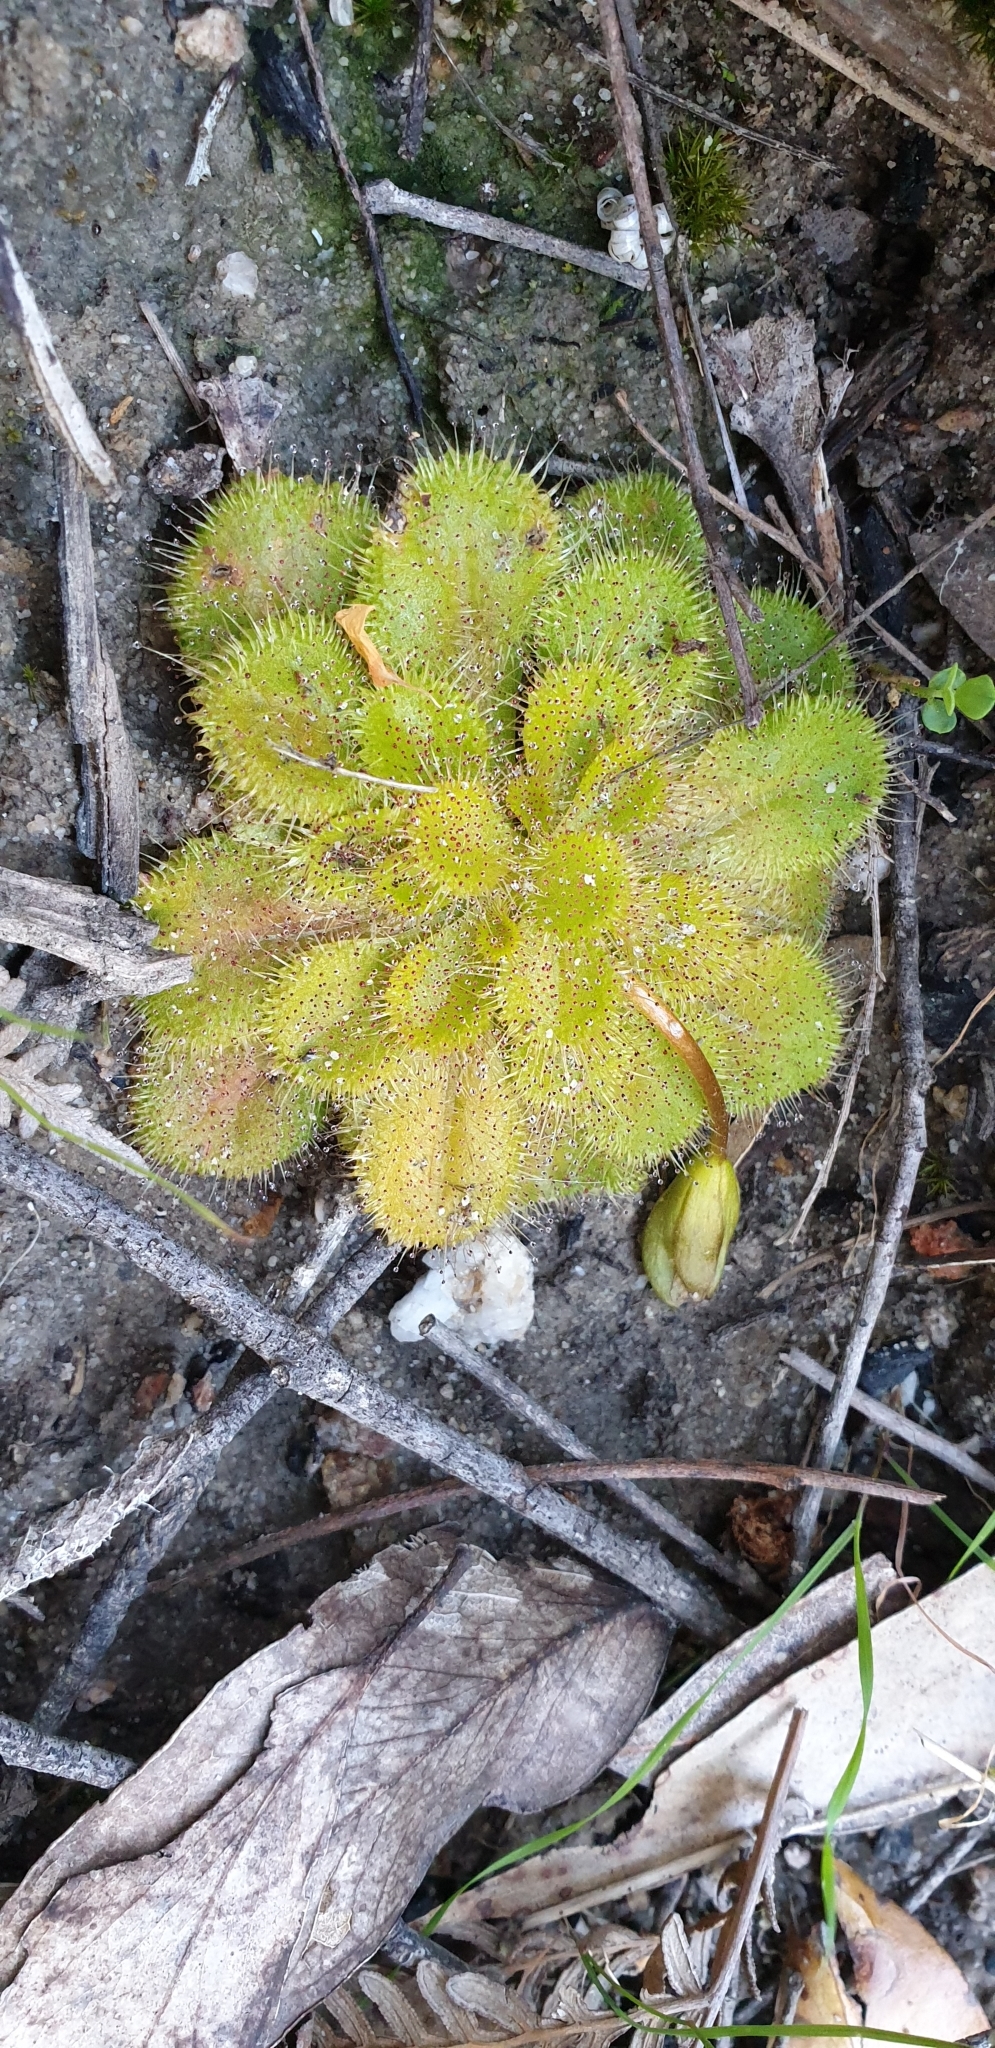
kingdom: Plantae
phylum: Tracheophyta
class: Magnoliopsida
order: Caryophyllales
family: Droseraceae
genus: Drosera
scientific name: Drosera whittakeri
